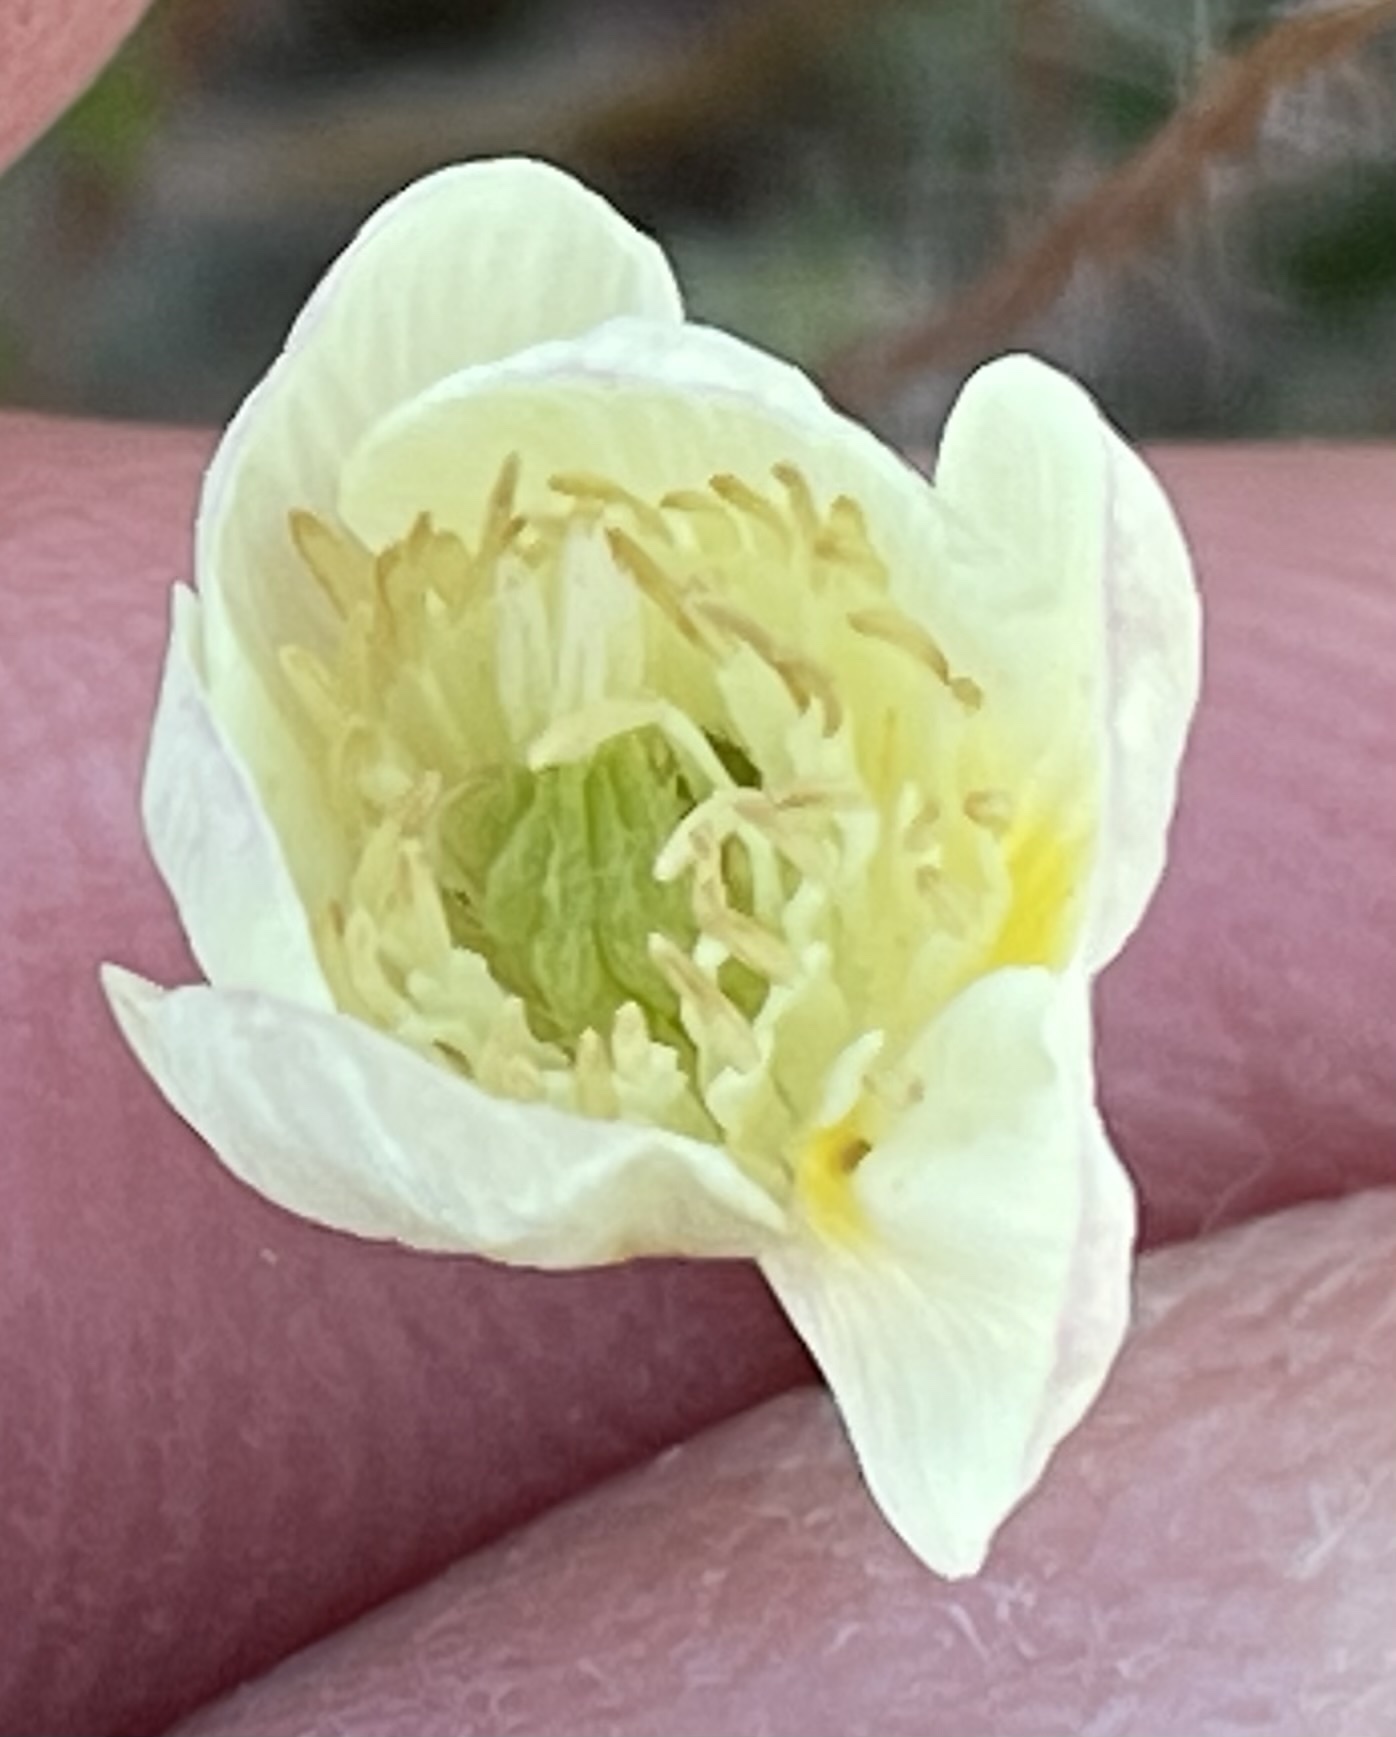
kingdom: Plantae
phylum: Tracheophyta
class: Magnoliopsida
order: Ranunculales
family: Papaveraceae
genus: Platystemon
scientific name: Platystemon californicus
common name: Cream-cups
